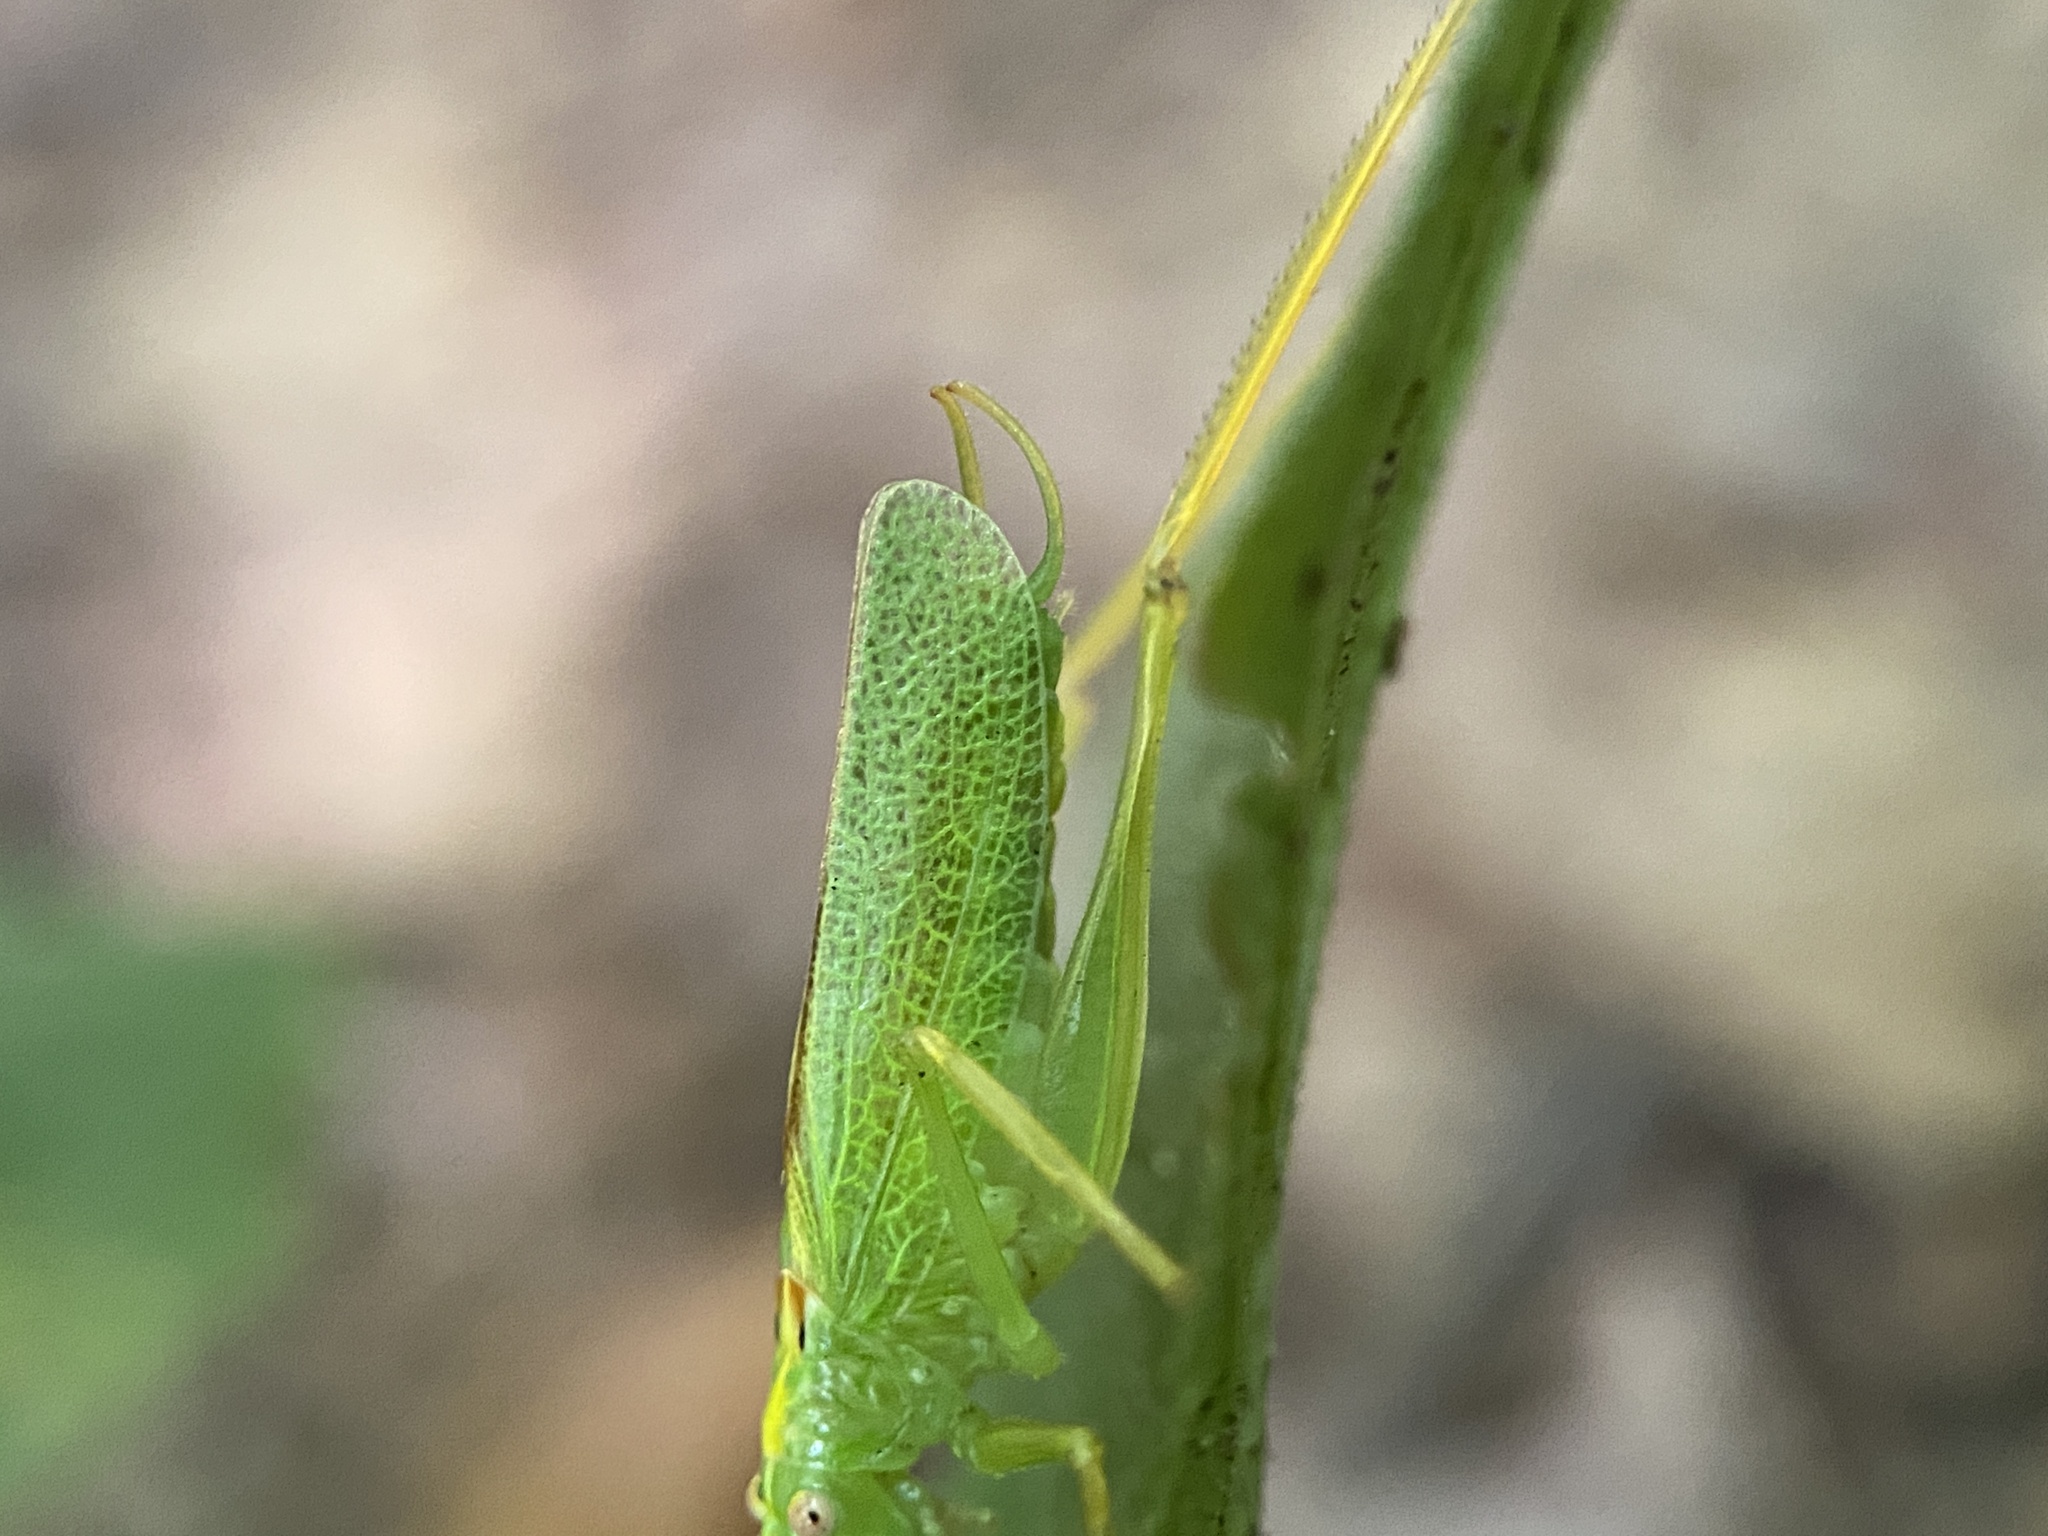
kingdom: Animalia
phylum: Arthropoda
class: Insecta
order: Orthoptera
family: Tettigoniidae
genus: Meconema
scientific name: Meconema thalassinum
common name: Oak bush-cricket
